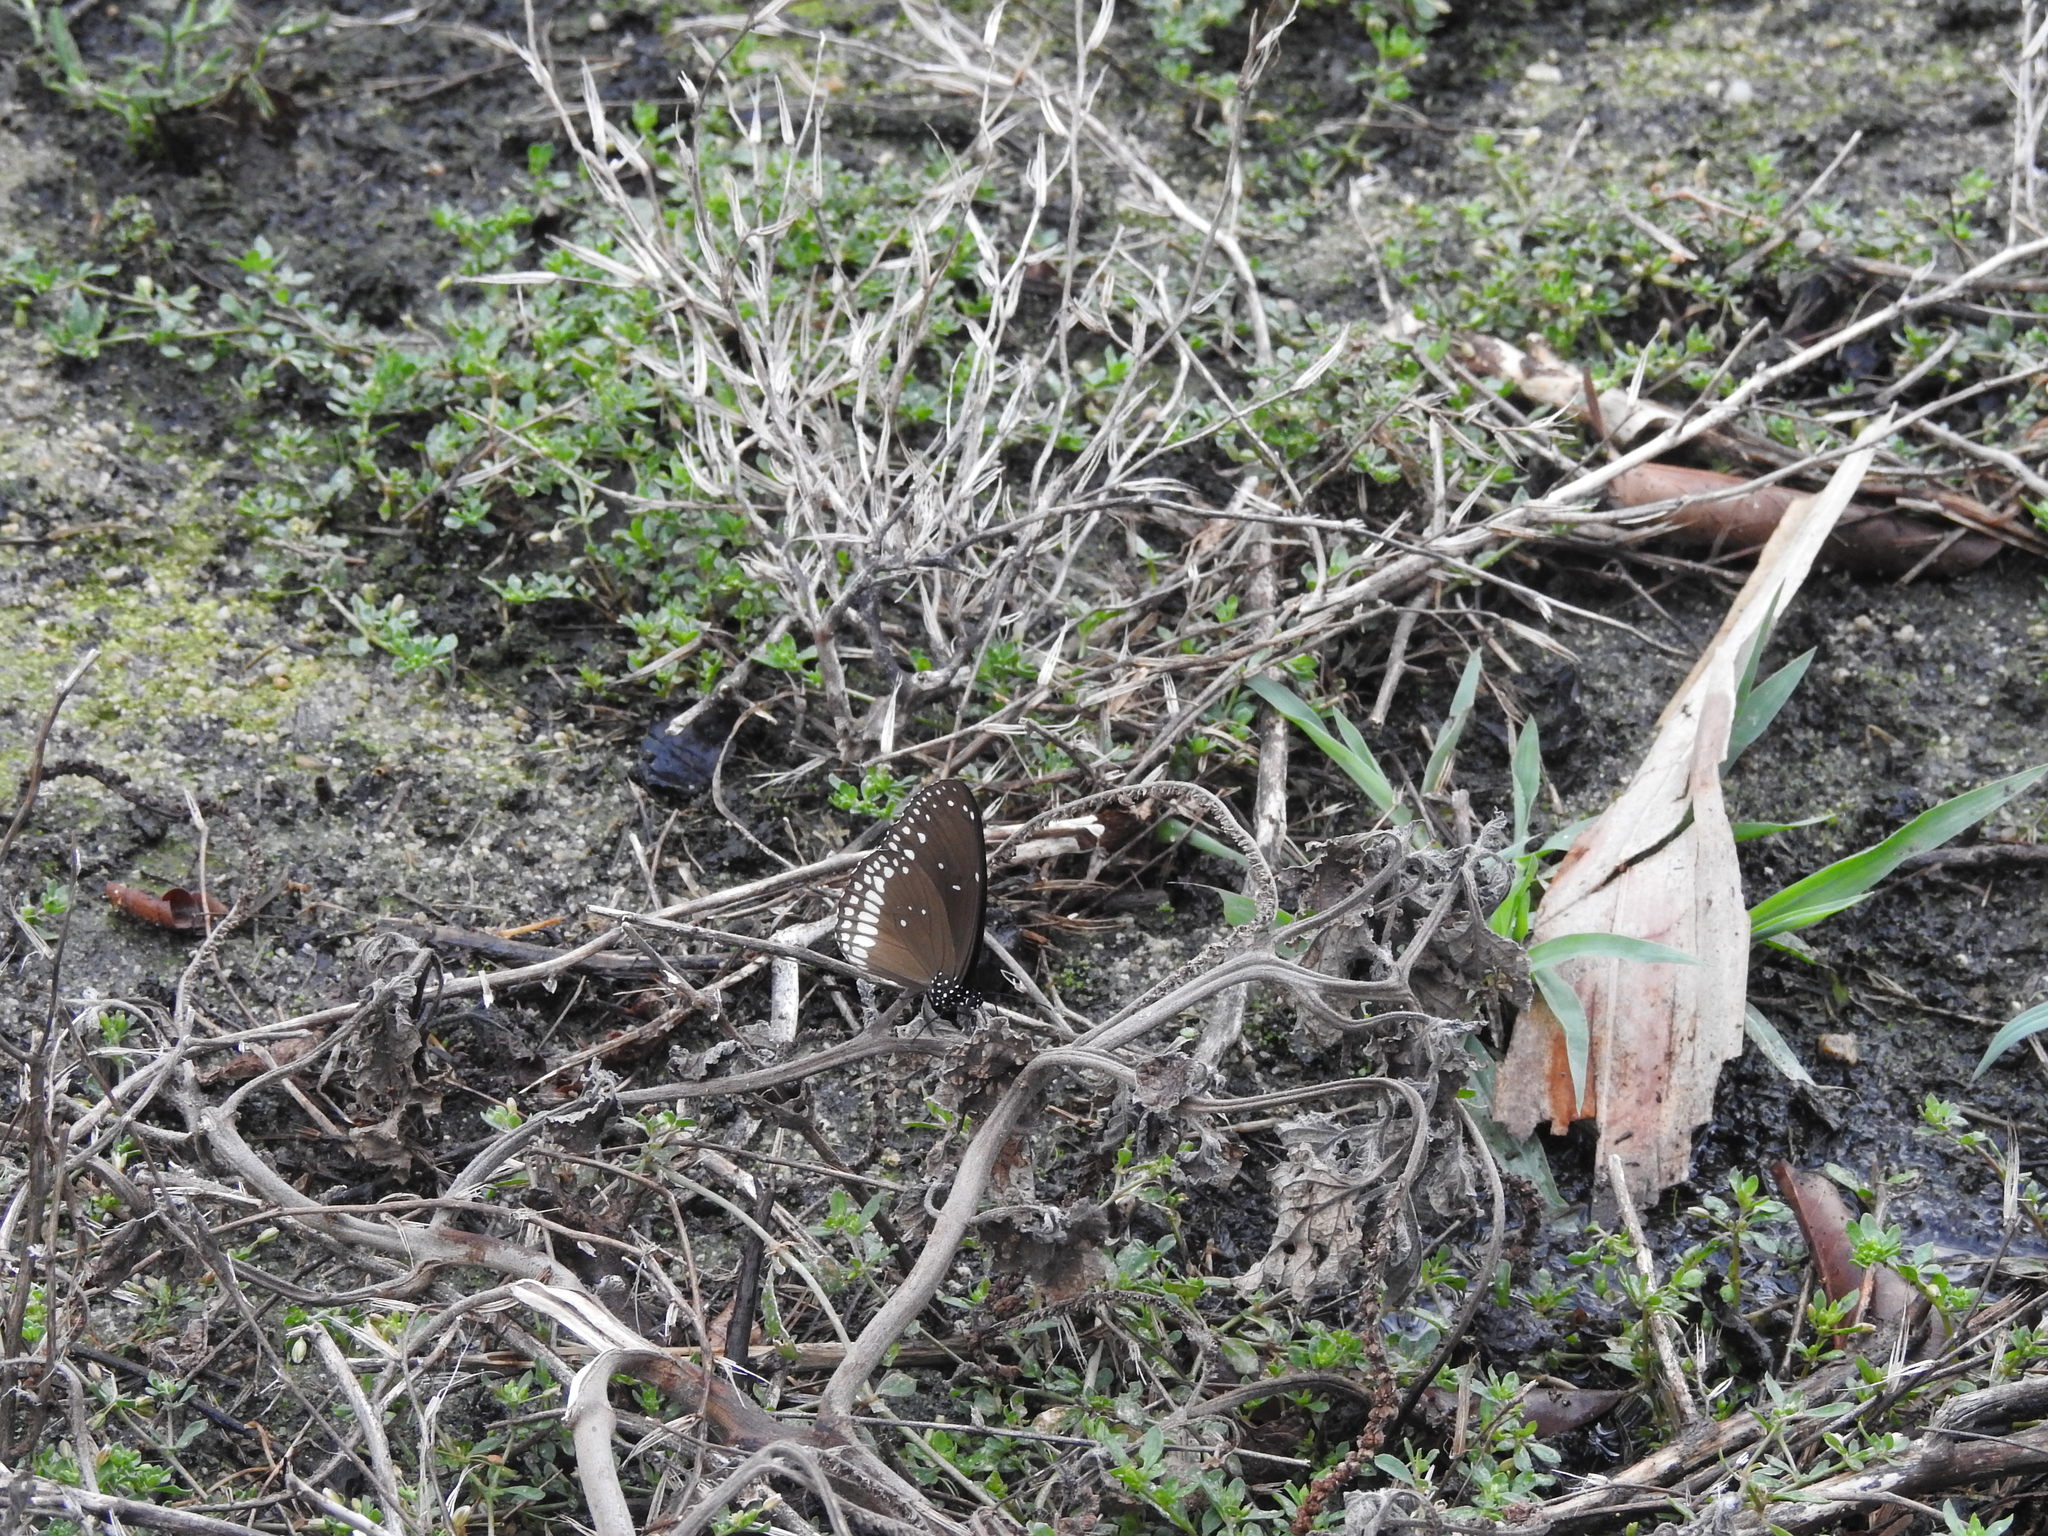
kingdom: Animalia
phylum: Arthropoda
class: Insecta
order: Lepidoptera
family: Nymphalidae
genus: Euploea
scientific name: Euploea core
